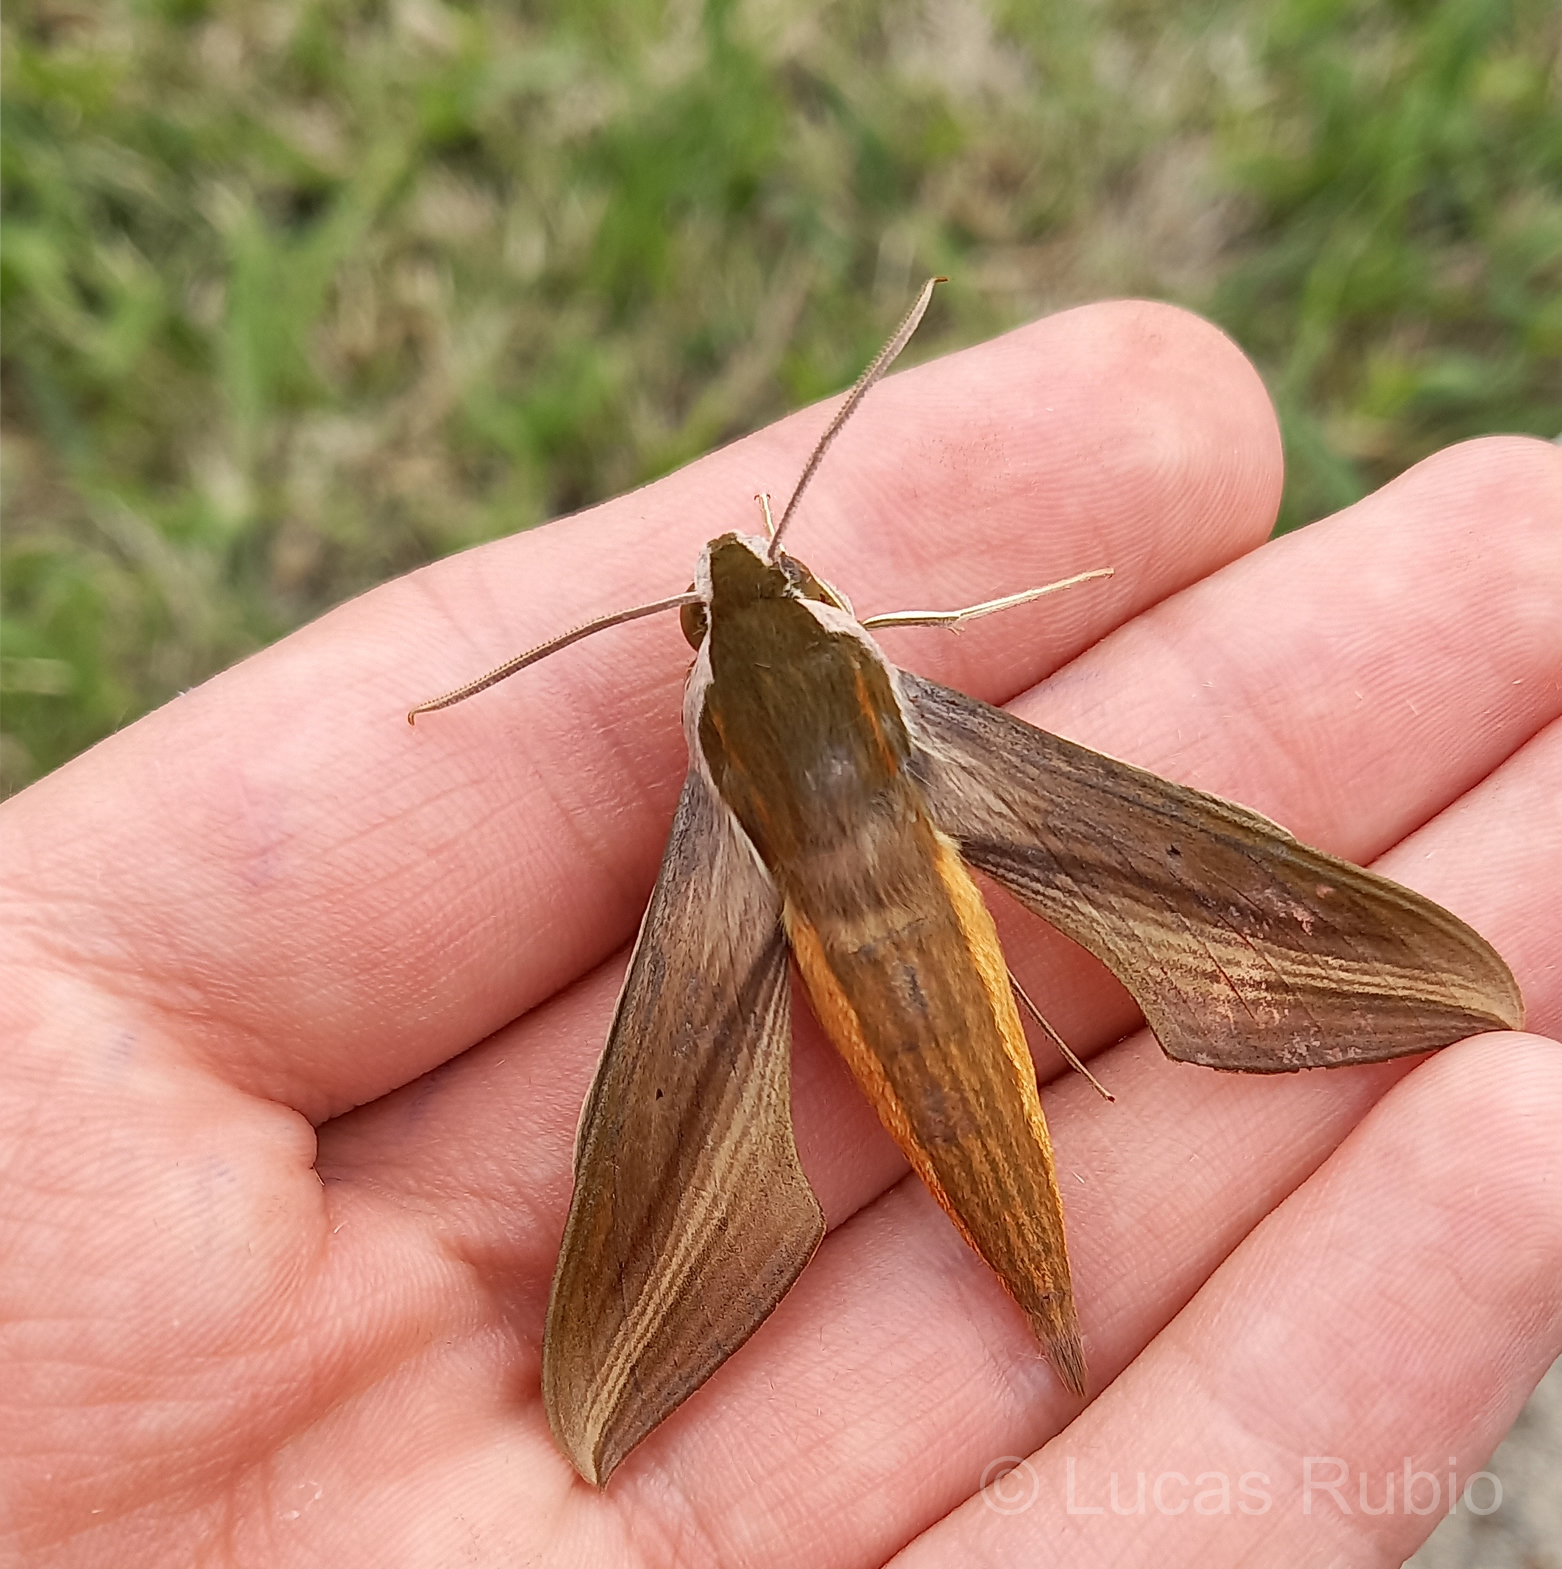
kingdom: Animalia
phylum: Arthropoda
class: Insecta
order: Lepidoptera
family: Sphingidae
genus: Xylophanes
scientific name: Xylophanes tersa
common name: Tersa sphinx
